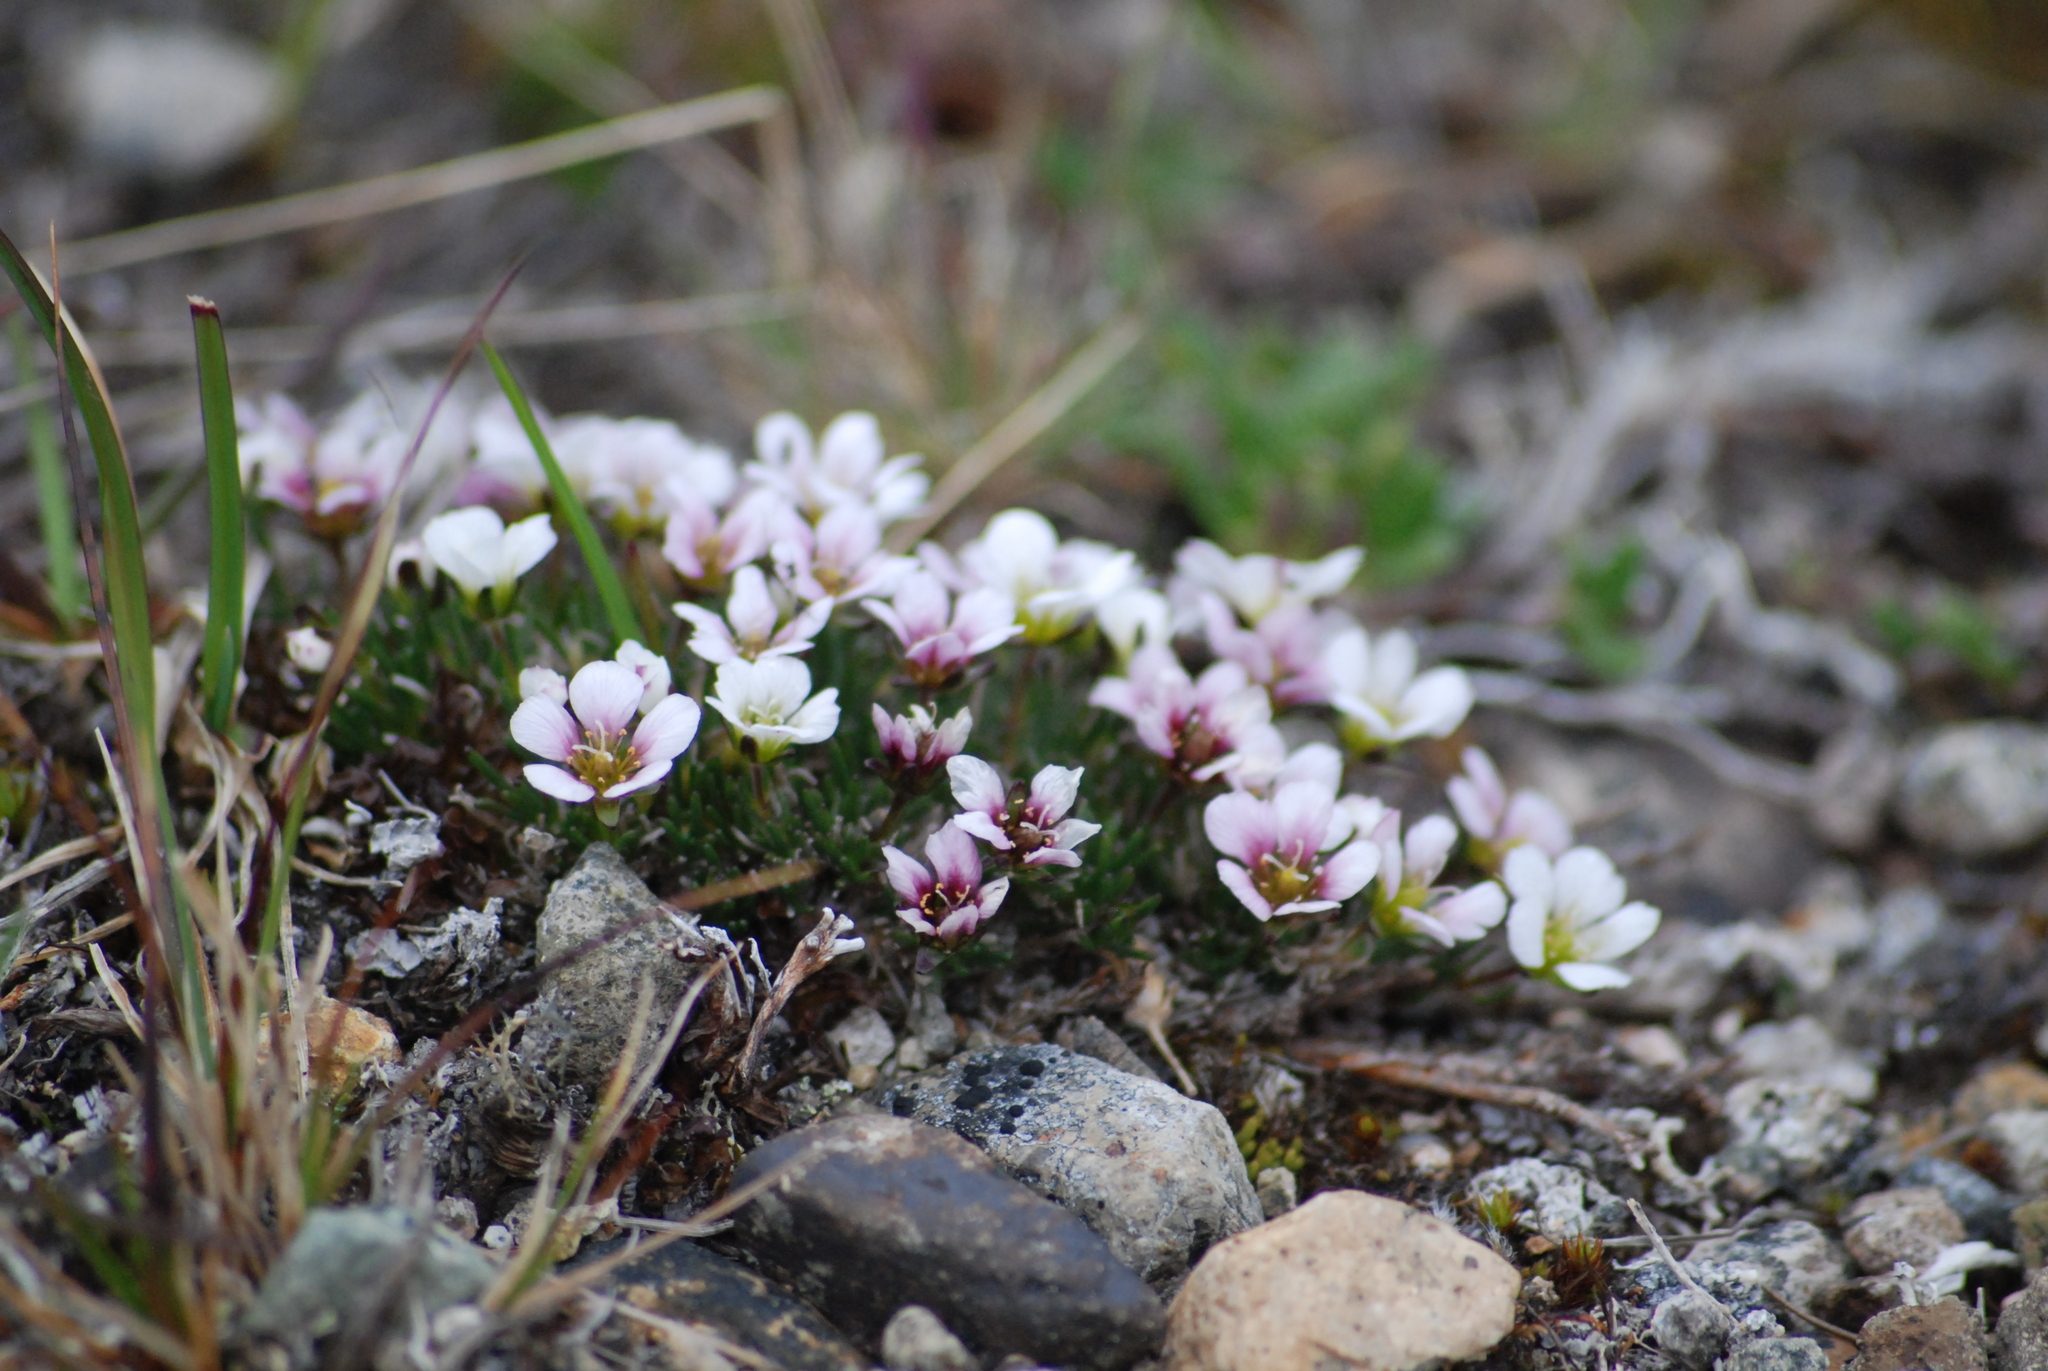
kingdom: Plantae
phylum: Tracheophyta
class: Magnoliopsida
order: Caryophyllales
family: Caryophyllaceae
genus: Cherleria
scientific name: Cherleria arctica
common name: Arctic sandwort
